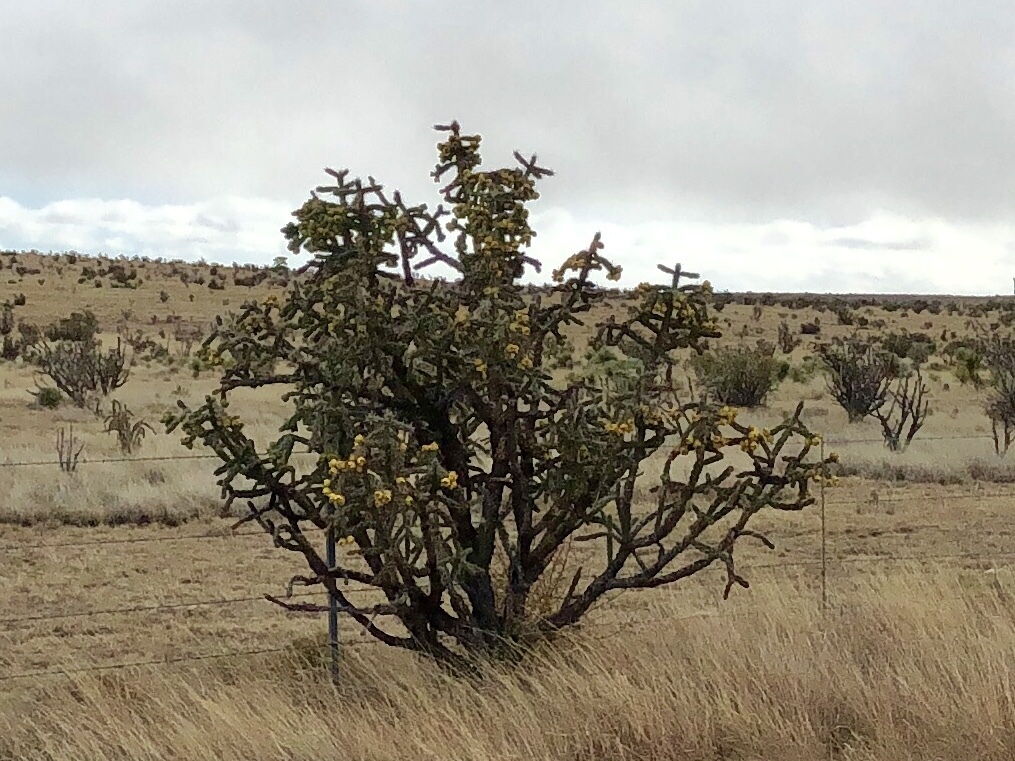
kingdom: Plantae
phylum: Tracheophyta
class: Magnoliopsida
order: Caryophyllales
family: Cactaceae
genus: Cylindropuntia
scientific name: Cylindropuntia imbricata
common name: Candelabrum cactus
